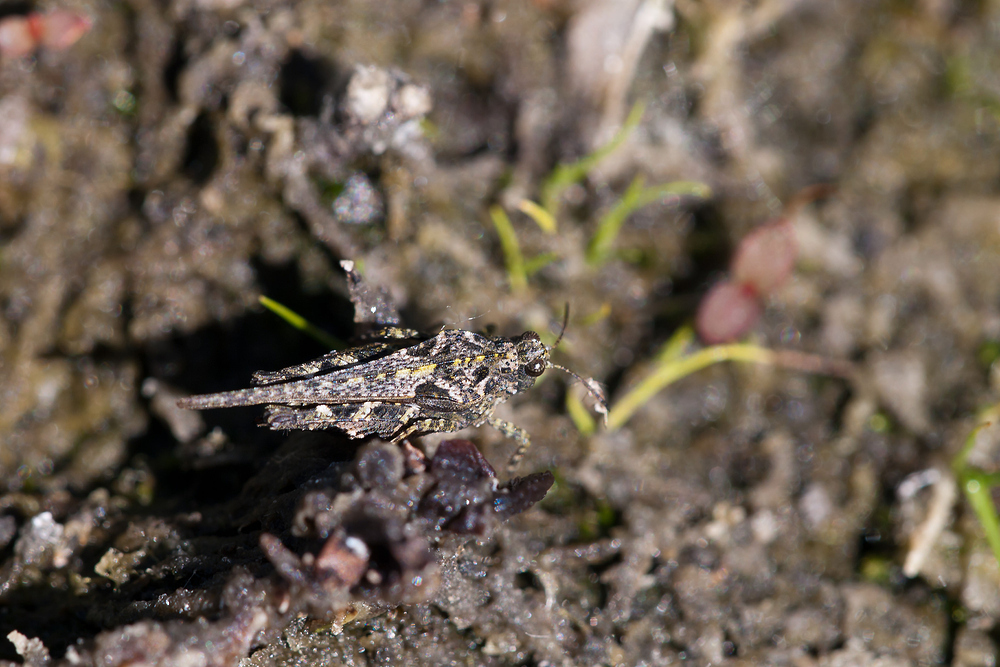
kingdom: Animalia
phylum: Arthropoda
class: Insecta
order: Orthoptera
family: Tetrigidae
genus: Tetrix
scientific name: Tetrix ceperoi
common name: Cepero's ground-hopper
